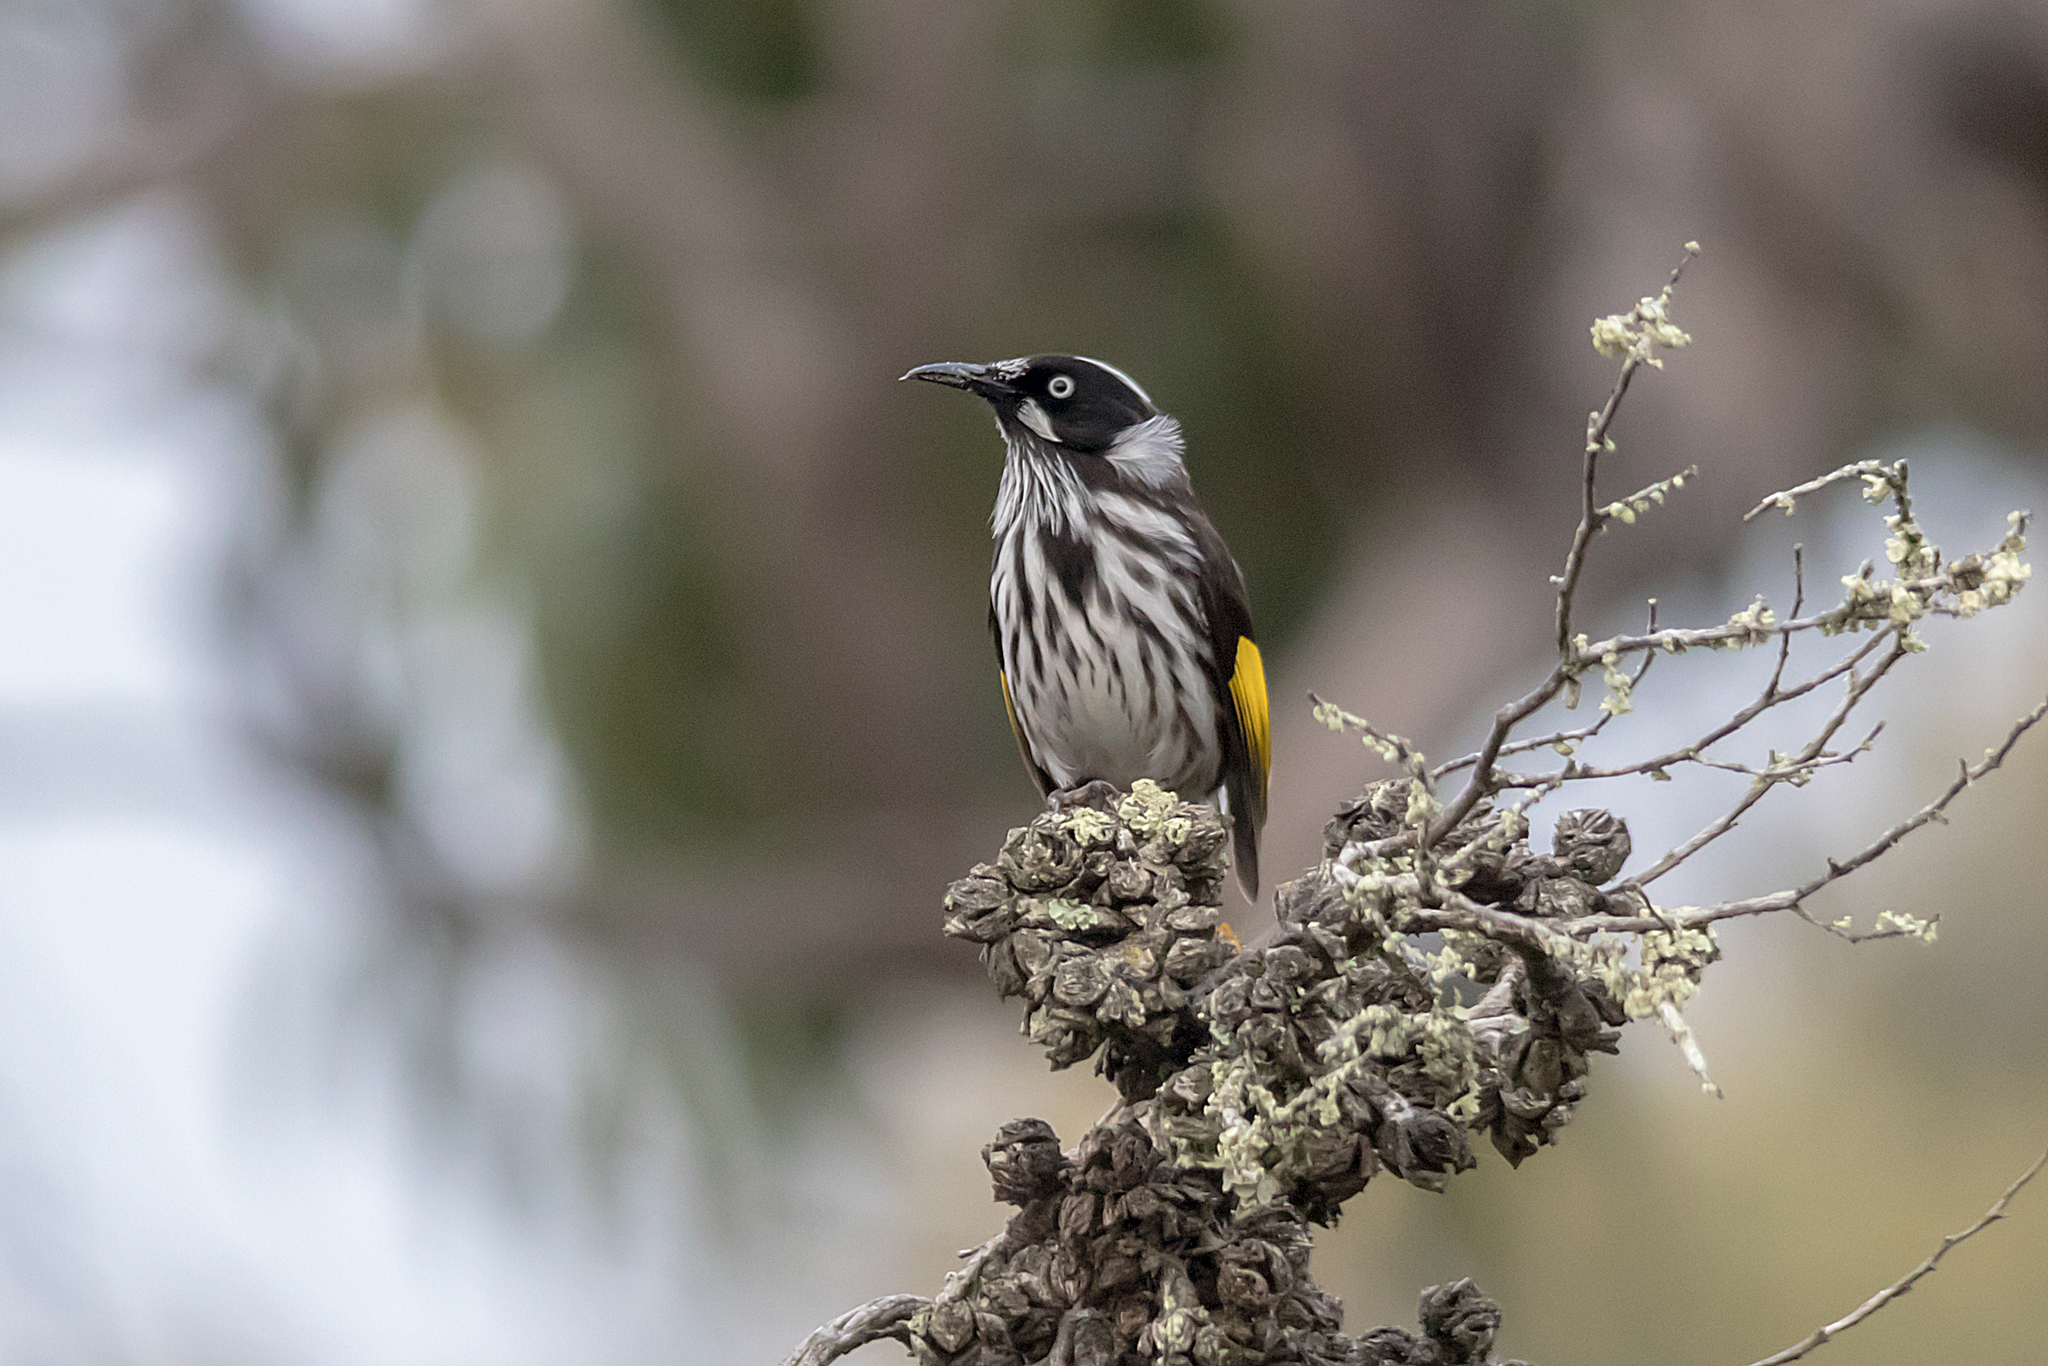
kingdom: Animalia
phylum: Chordata
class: Aves
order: Passeriformes
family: Meliphagidae
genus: Phylidonyris
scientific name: Phylidonyris novaehollandiae
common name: New holland honeyeater
